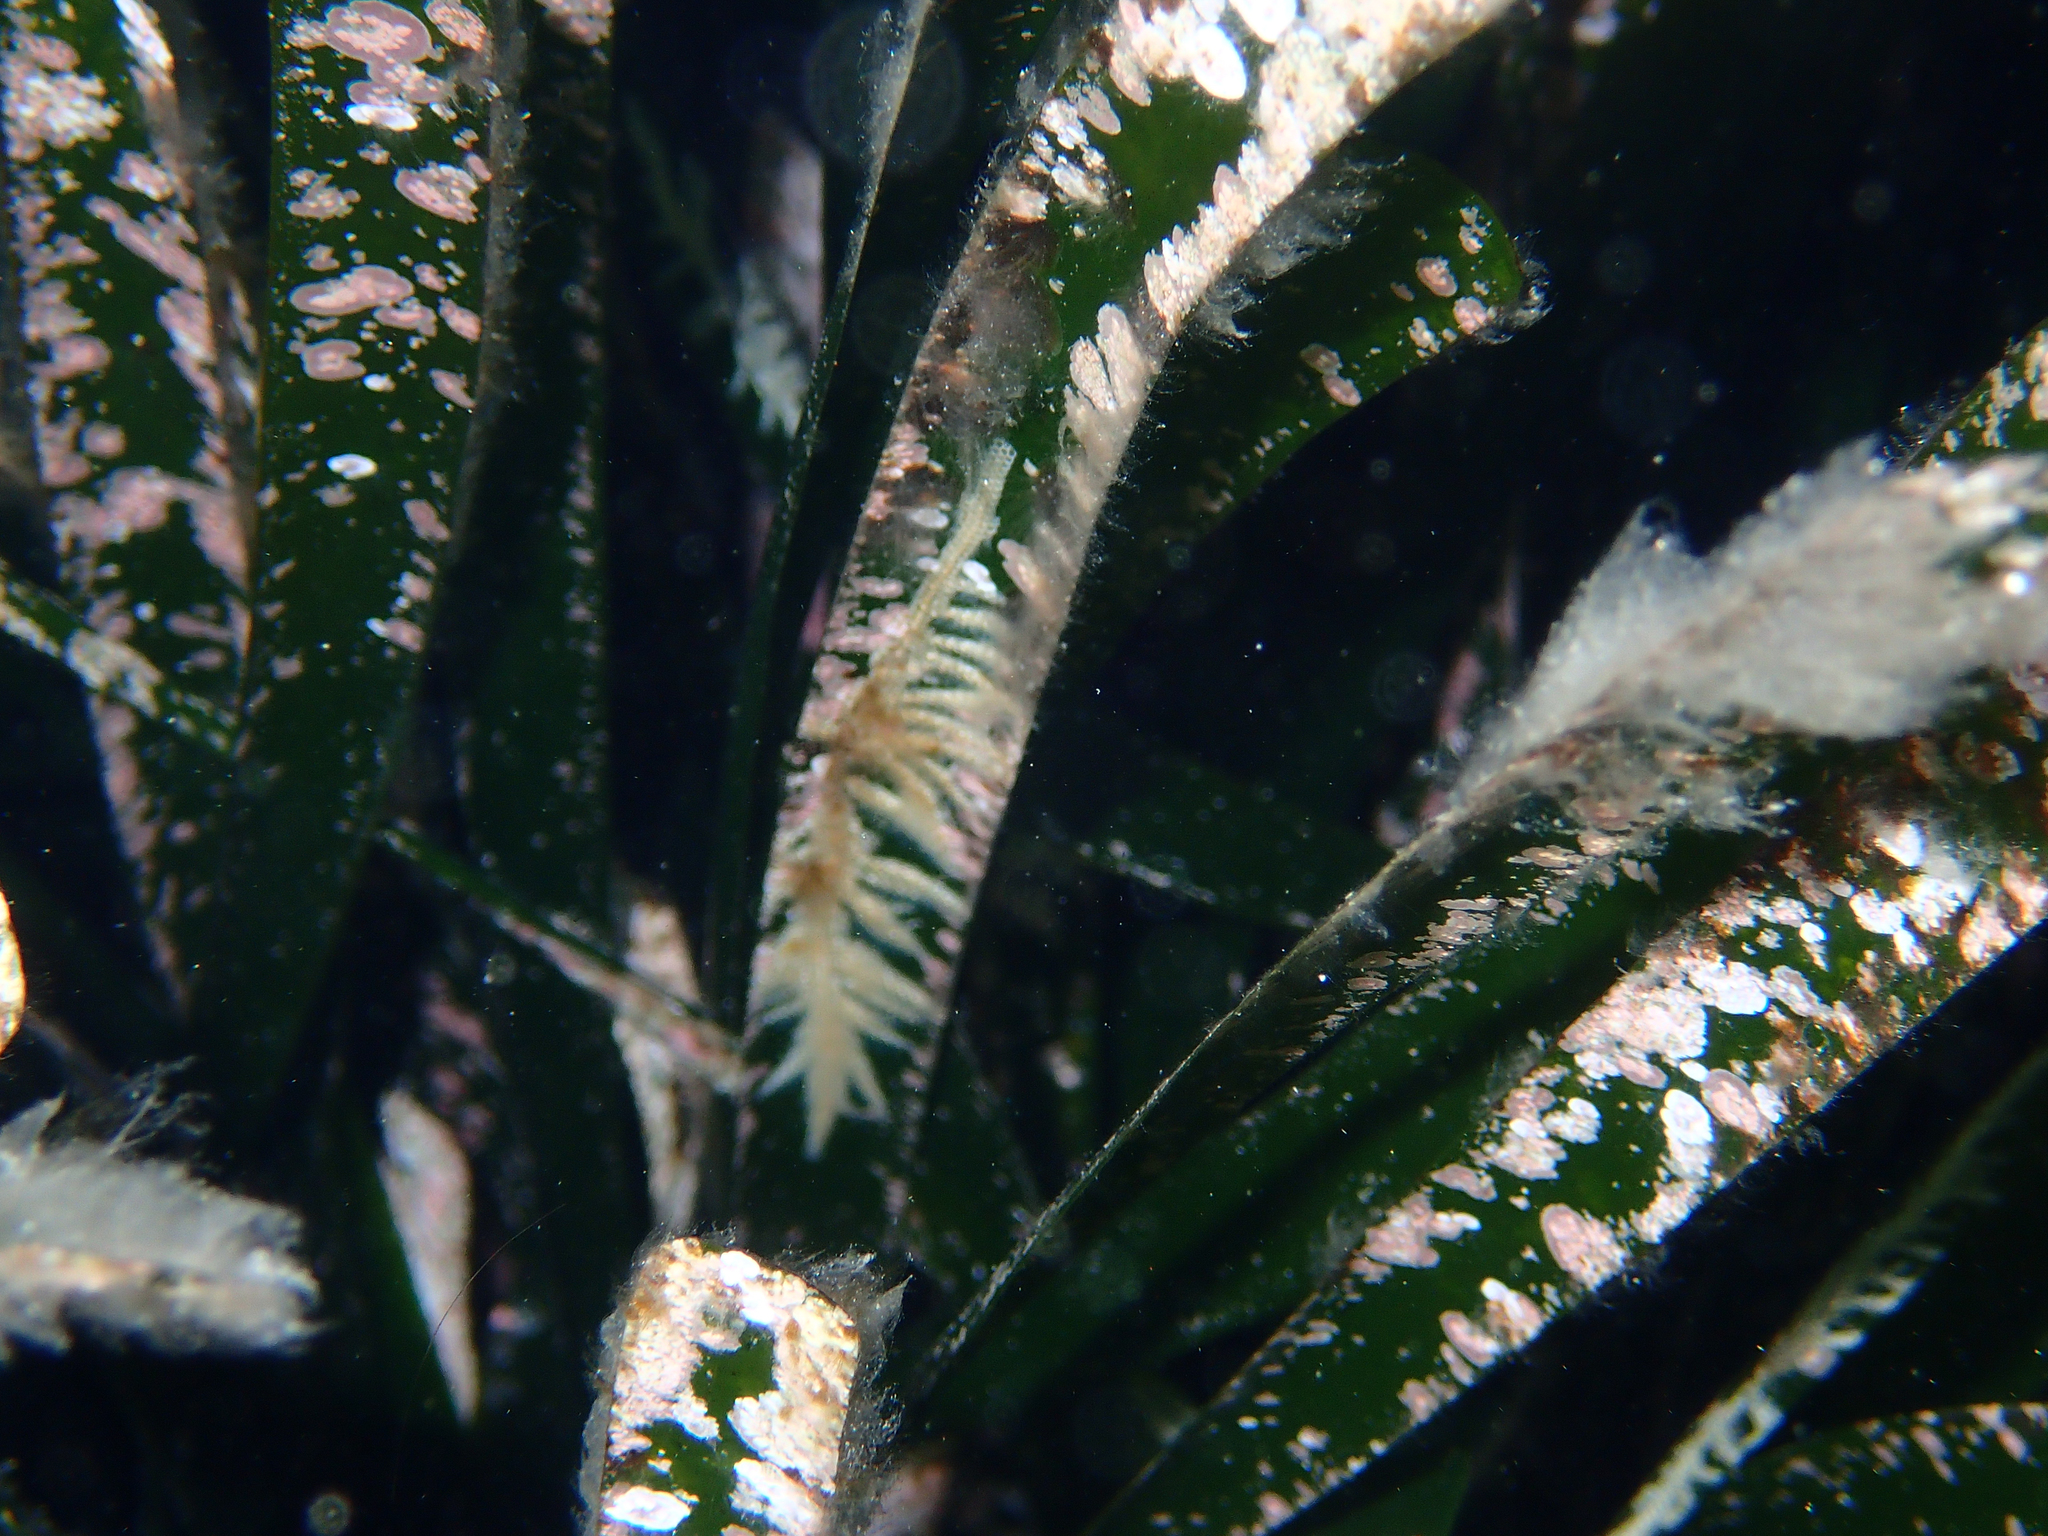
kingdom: Animalia
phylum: Bryozoa
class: Gymnolaemata
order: Cheilostomatida
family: Electridae
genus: Electra
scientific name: Electra posidoniae
